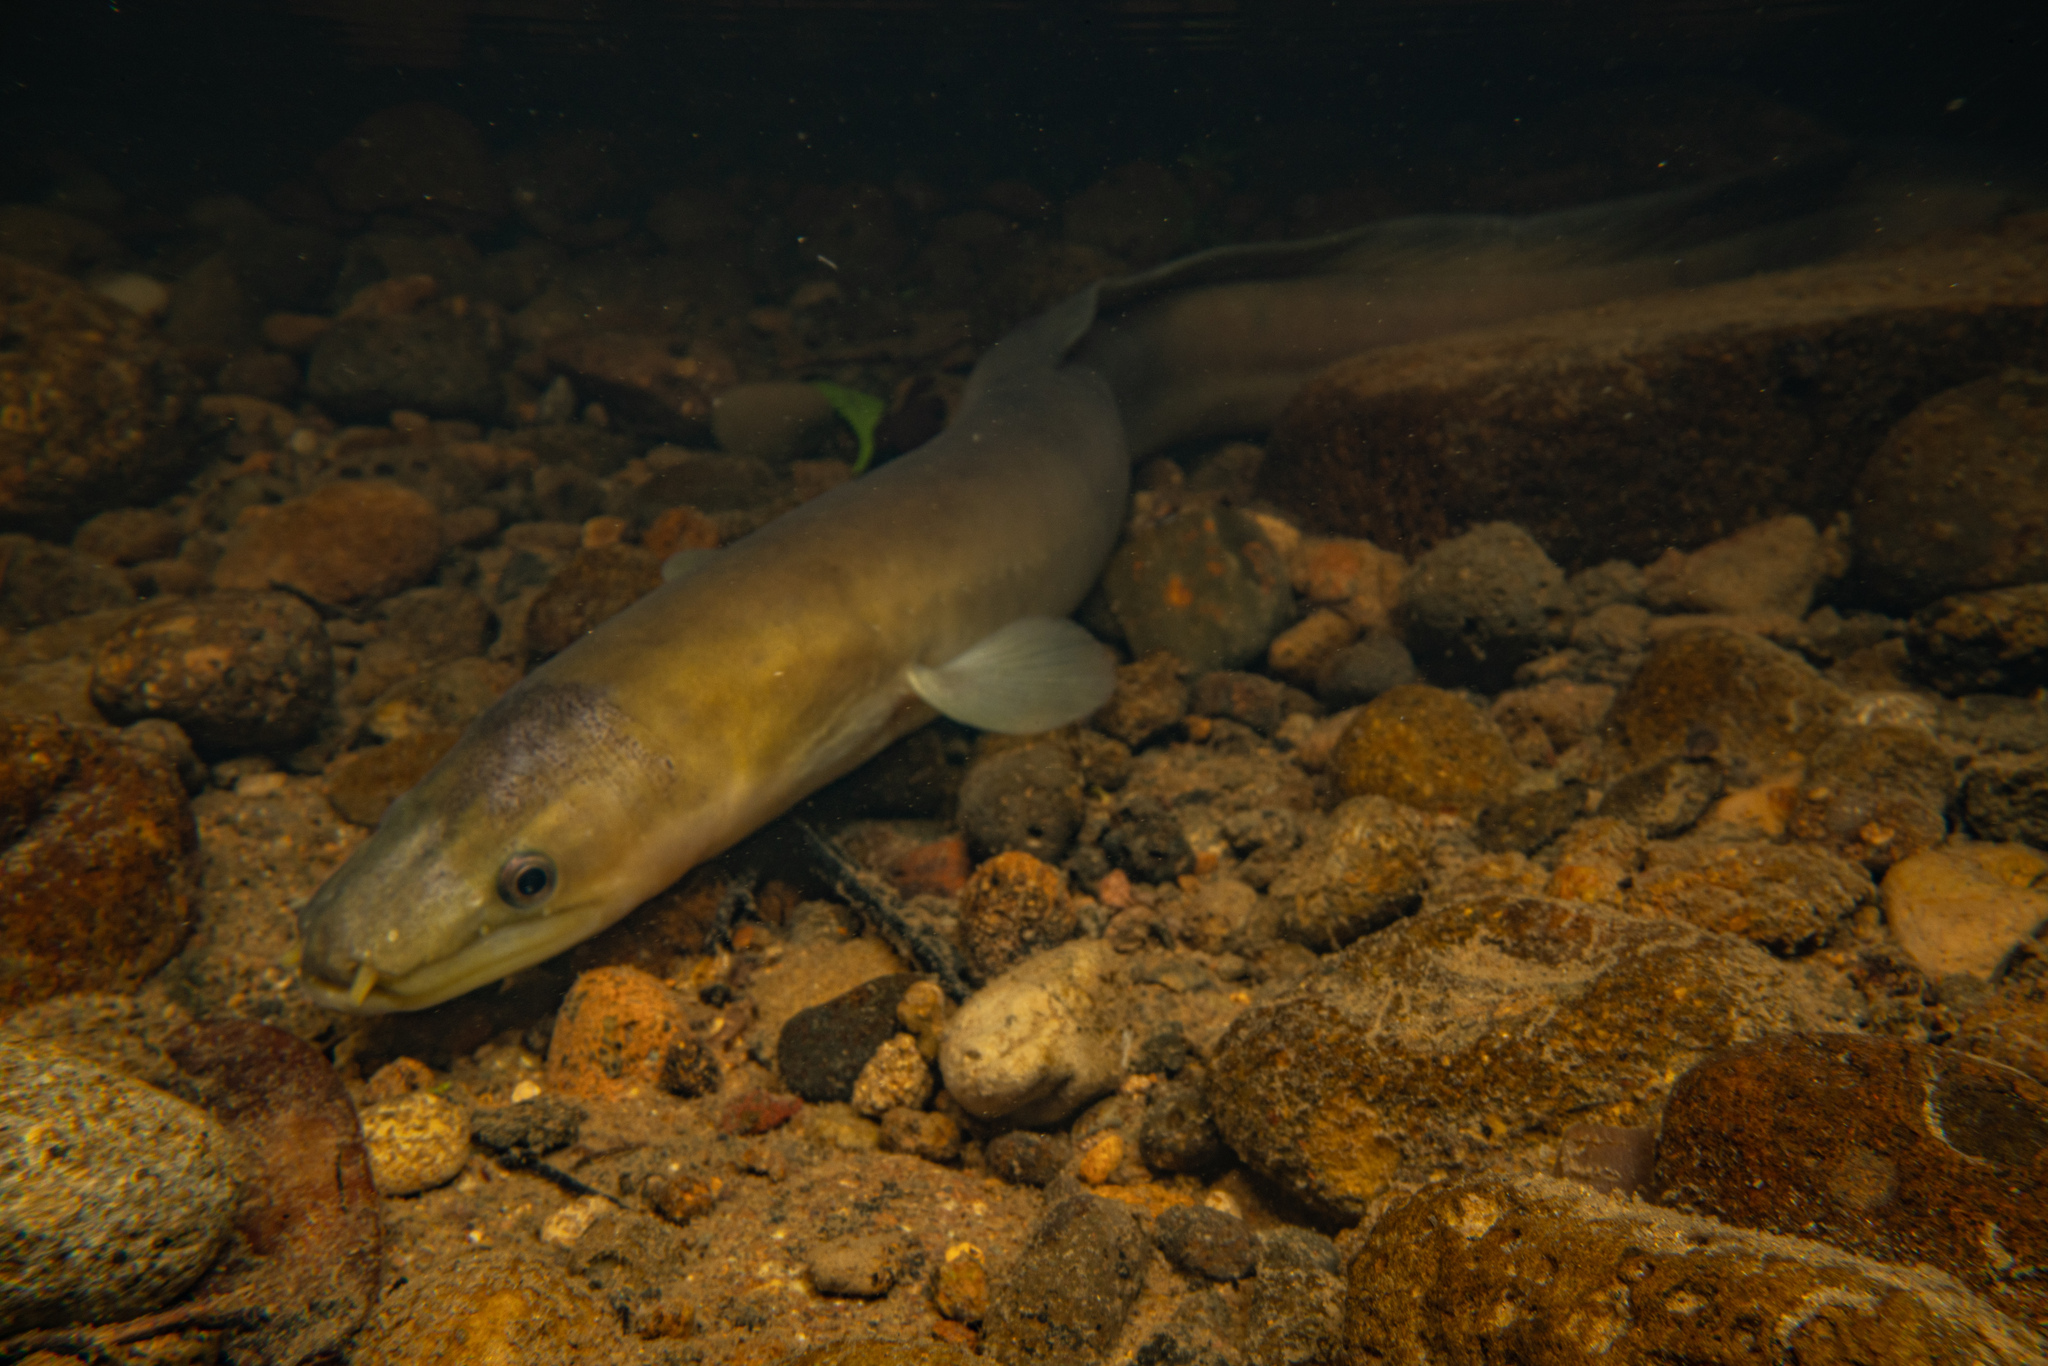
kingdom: Animalia
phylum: Chordata
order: Anguilliformes
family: Anguillidae
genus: Anguilla
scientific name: Anguilla dieffenbachii
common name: New zealand longfin eel
